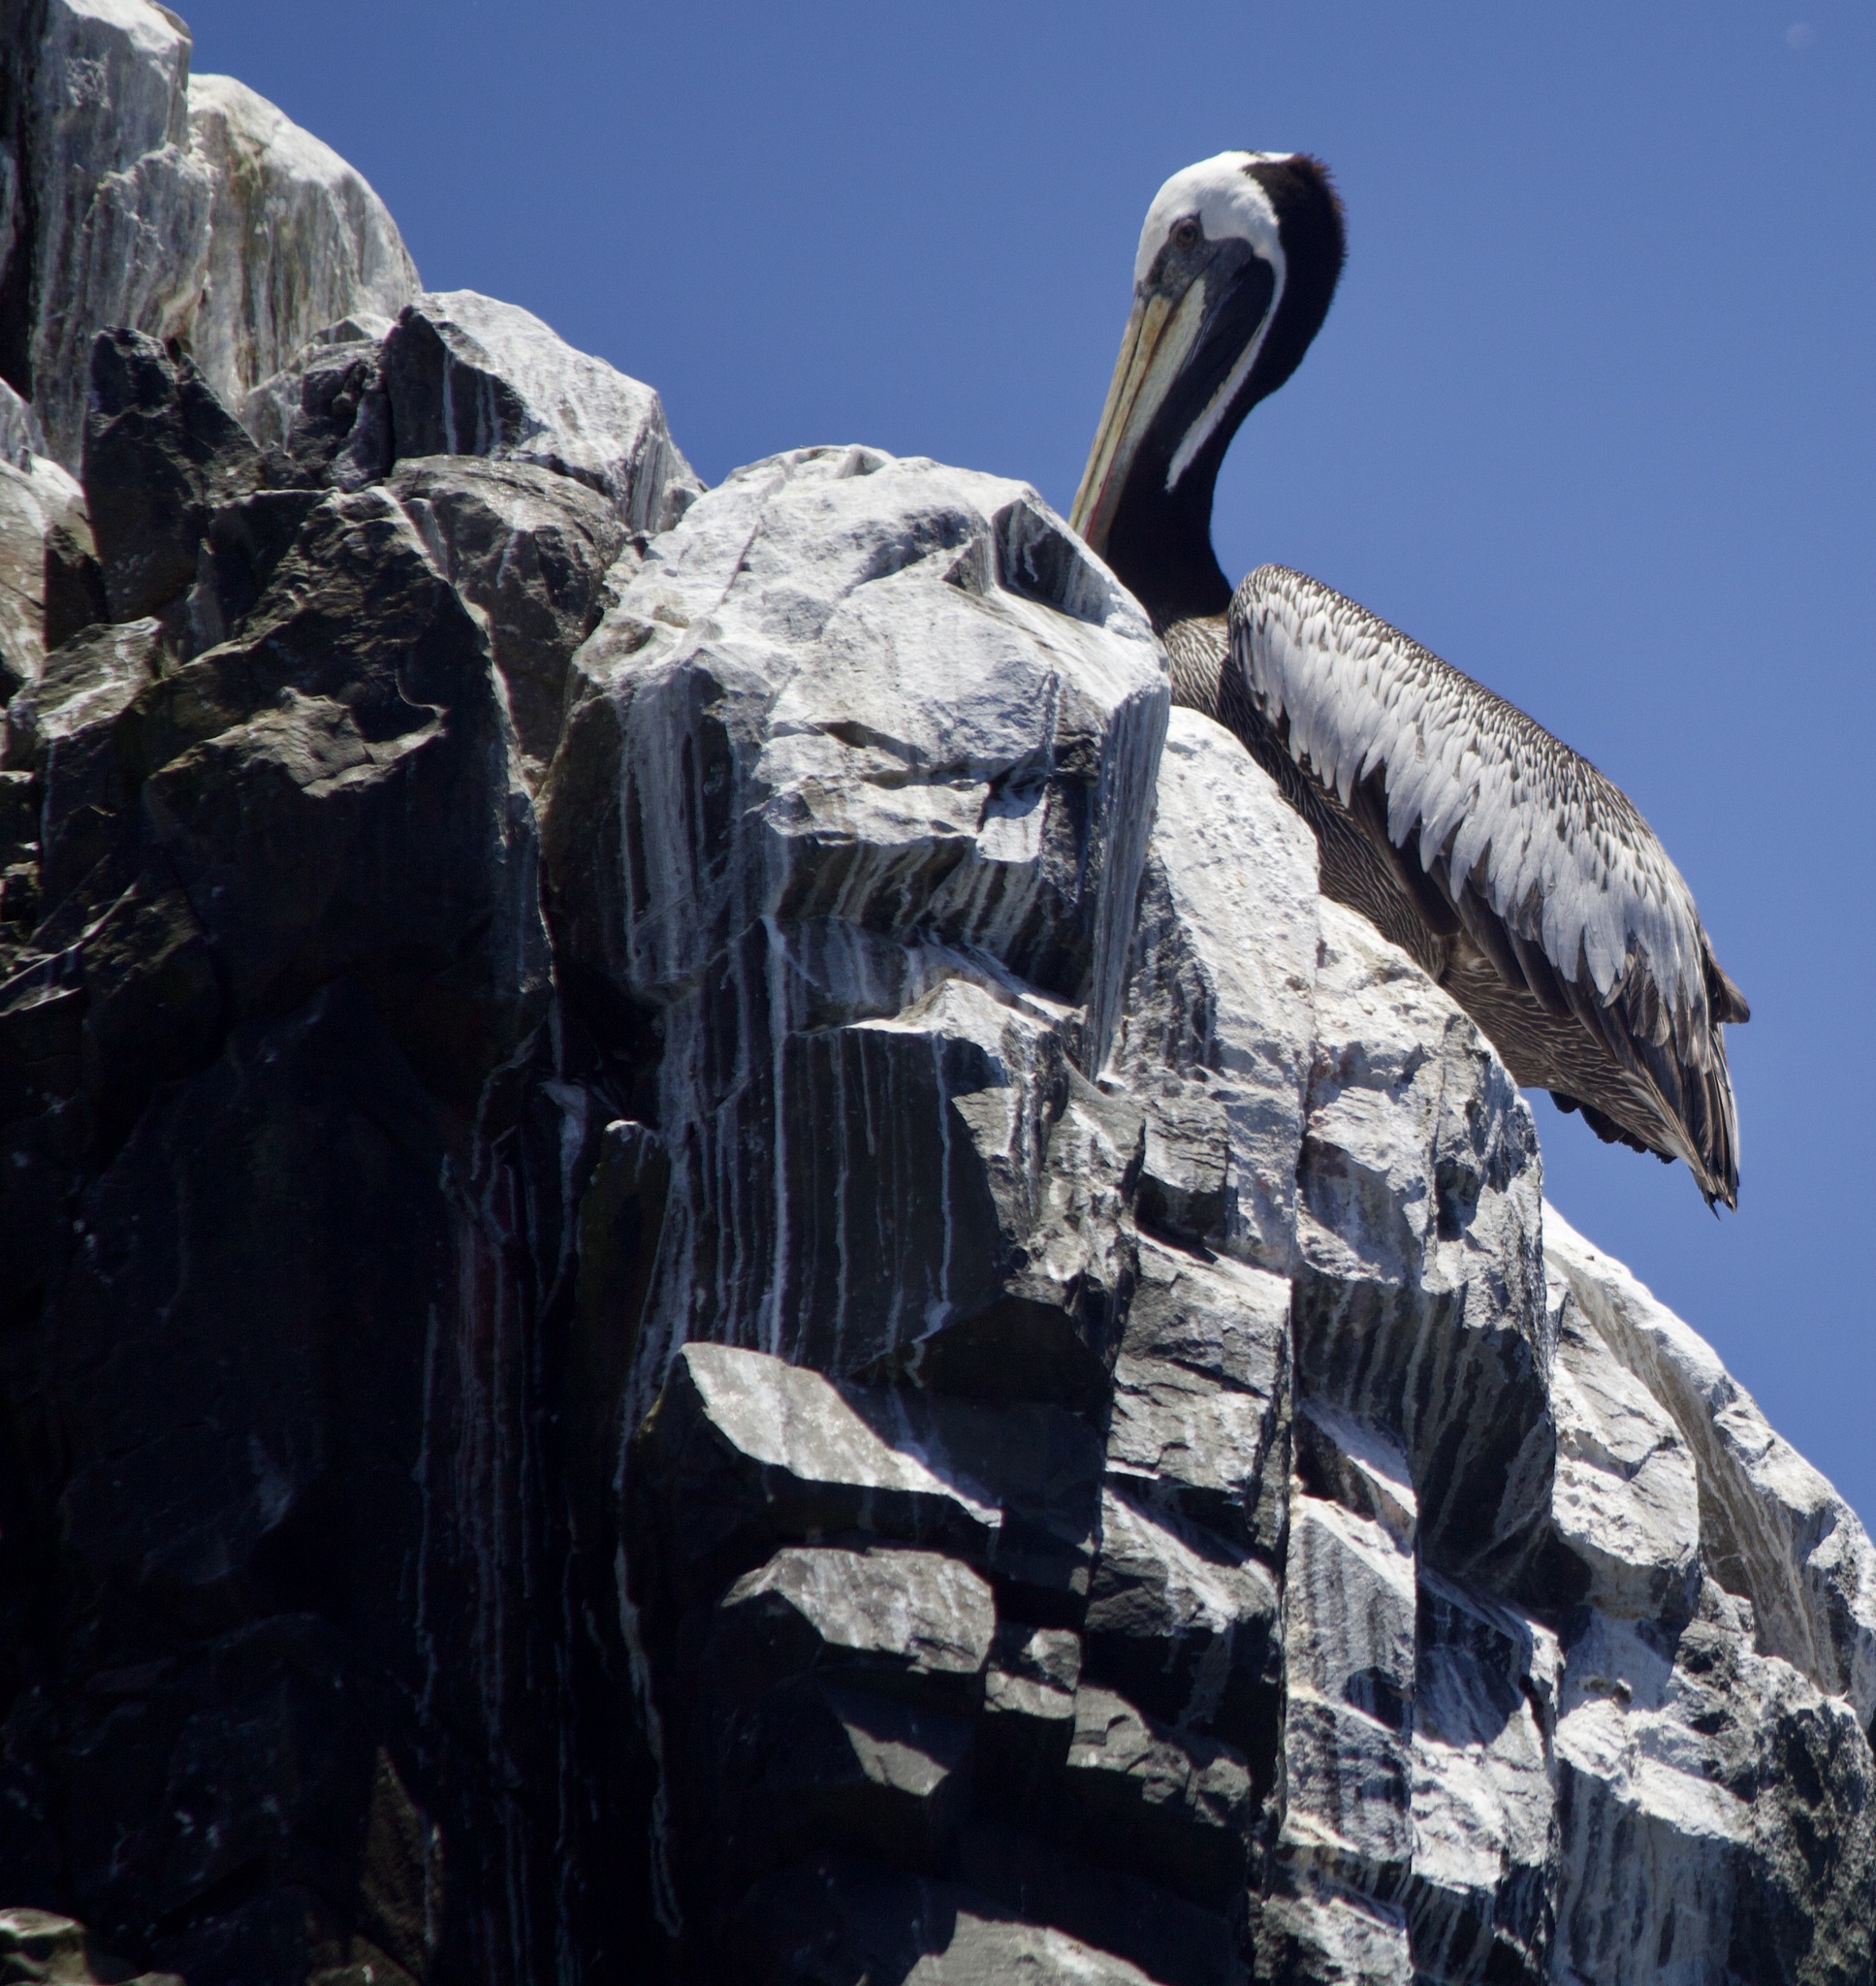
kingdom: Animalia
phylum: Chordata
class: Aves
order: Pelecaniformes
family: Pelecanidae
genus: Pelecanus
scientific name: Pelecanus thagus
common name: Peruvian pelican
